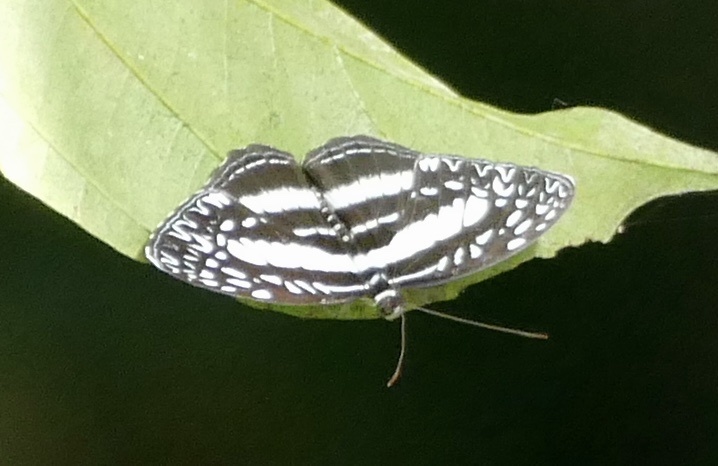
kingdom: Animalia
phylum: Arthropoda
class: Insecta
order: Lepidoptera
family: Nymphalidae
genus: Pseudoneptis
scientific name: Pseudoneptis bugandensis
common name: Blue sailer
